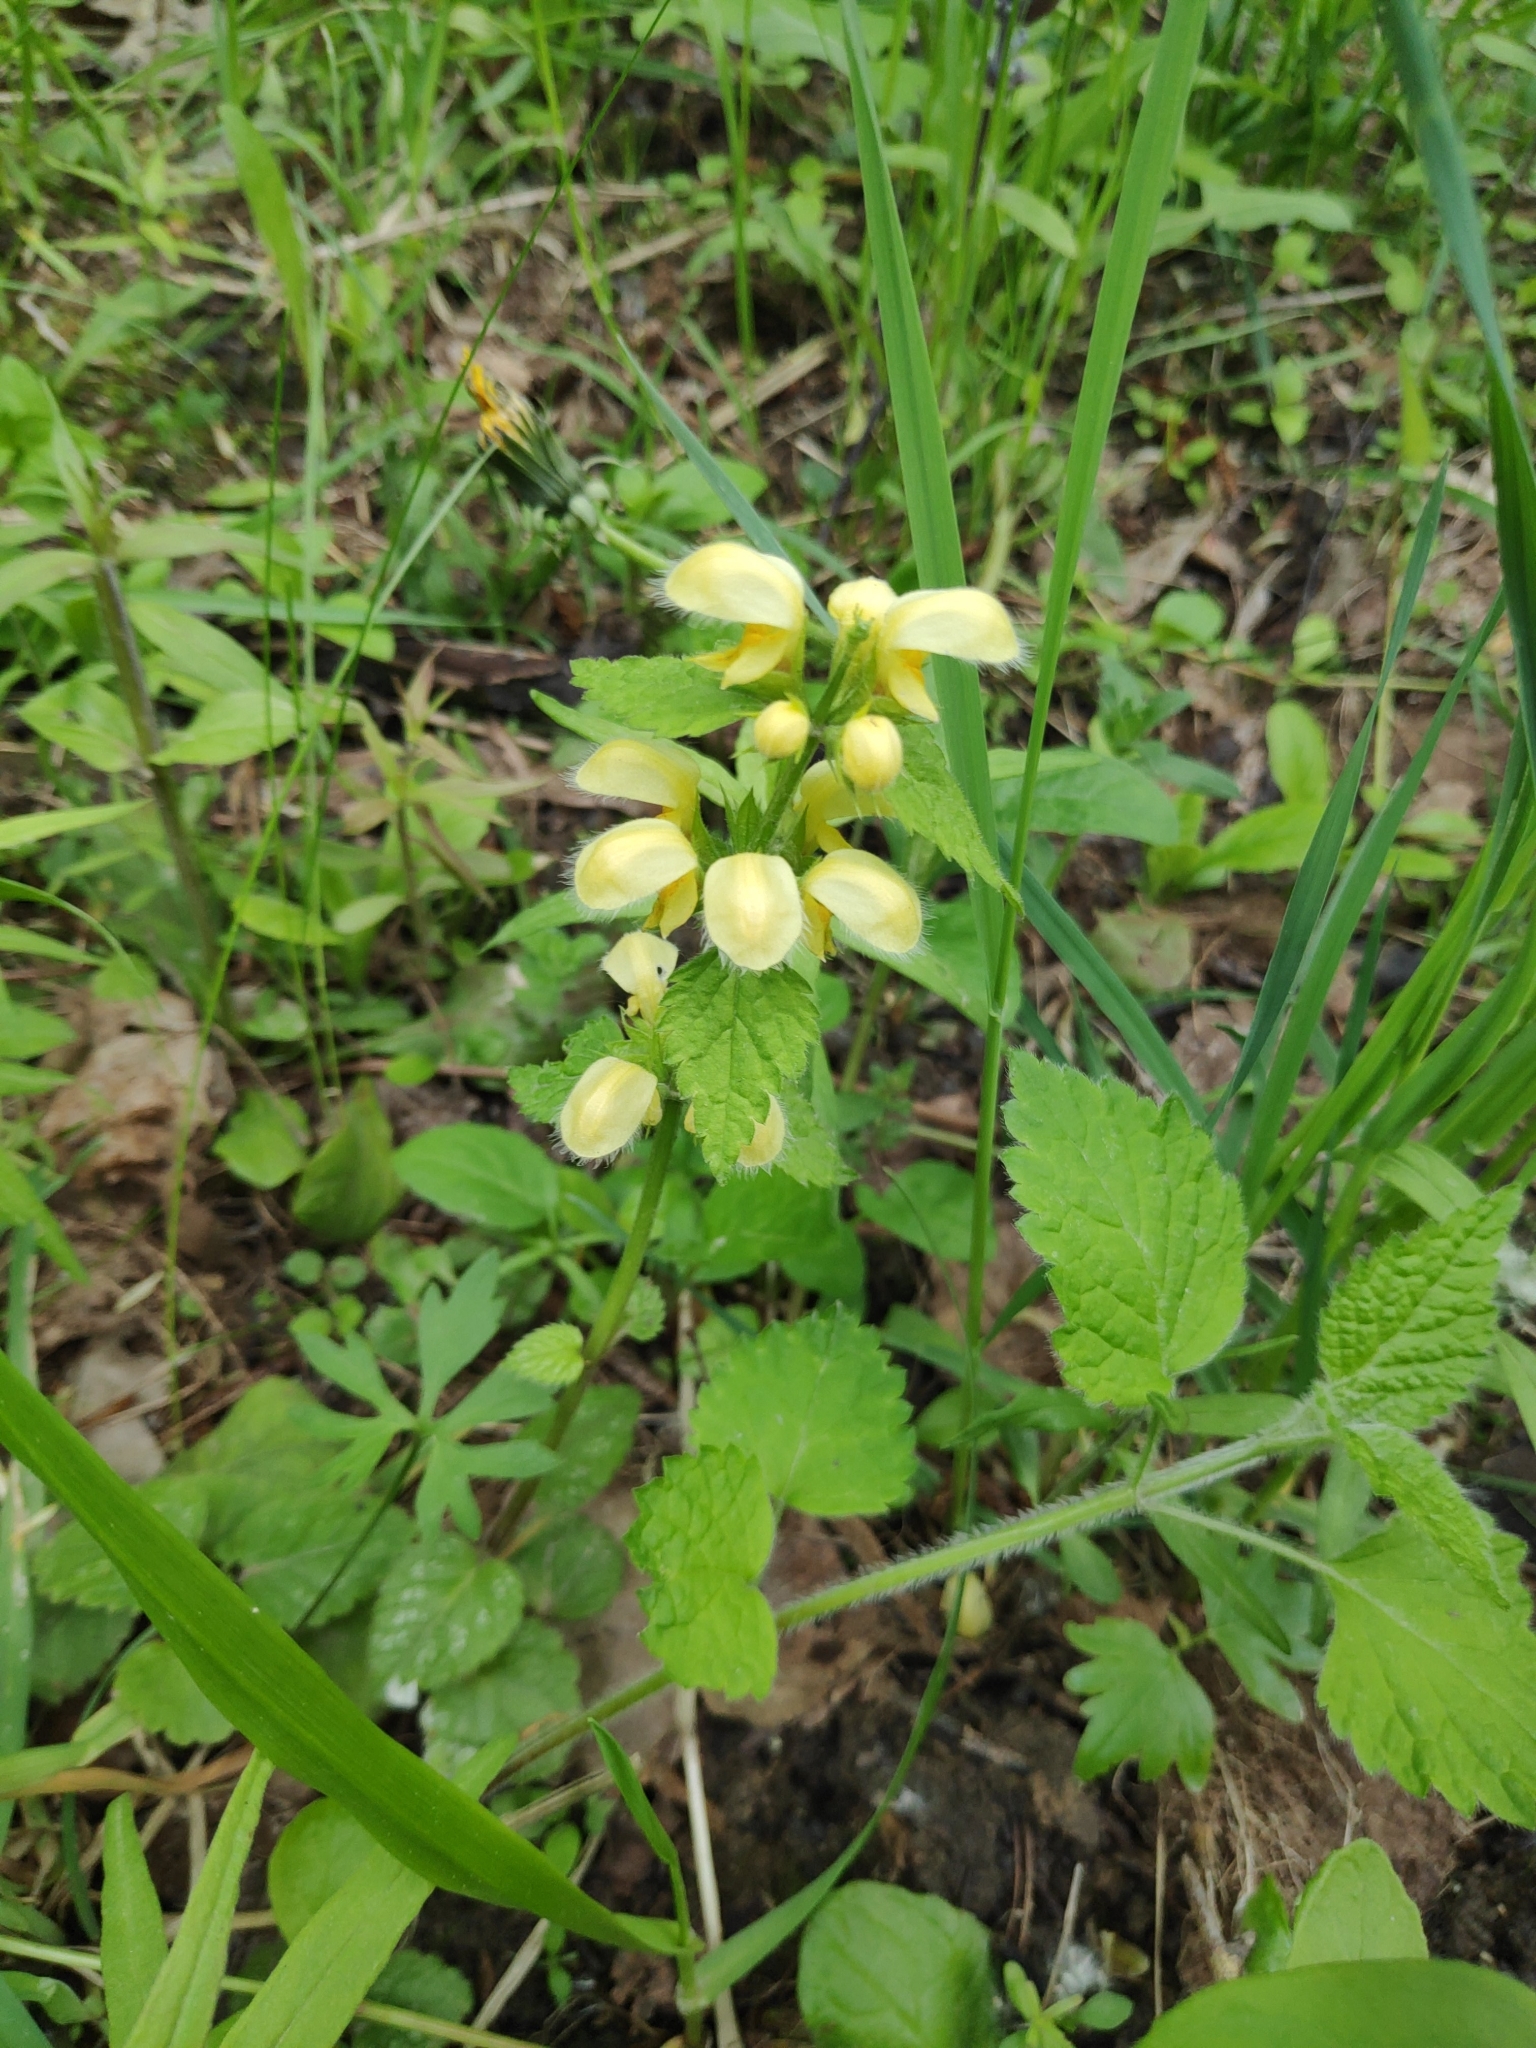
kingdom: Plantae
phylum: Tracheophyta
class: Magnoliopsida
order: Lamiales
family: Lamiaceae
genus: Lamium
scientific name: Lamium galeobdolon
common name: Yellow archangel
